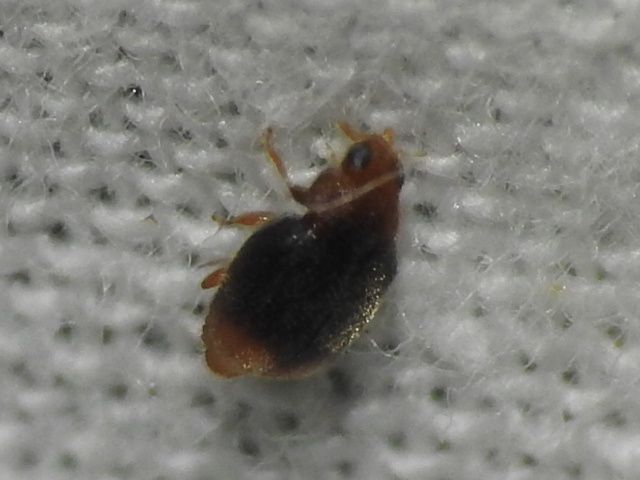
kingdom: Animalia
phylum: Arthropoda
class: Insecta
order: Coleoptera
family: Coccinellidae
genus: Cryptolaemus
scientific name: Cryptolaemus montrouzieri
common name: Mealybug destroyer
